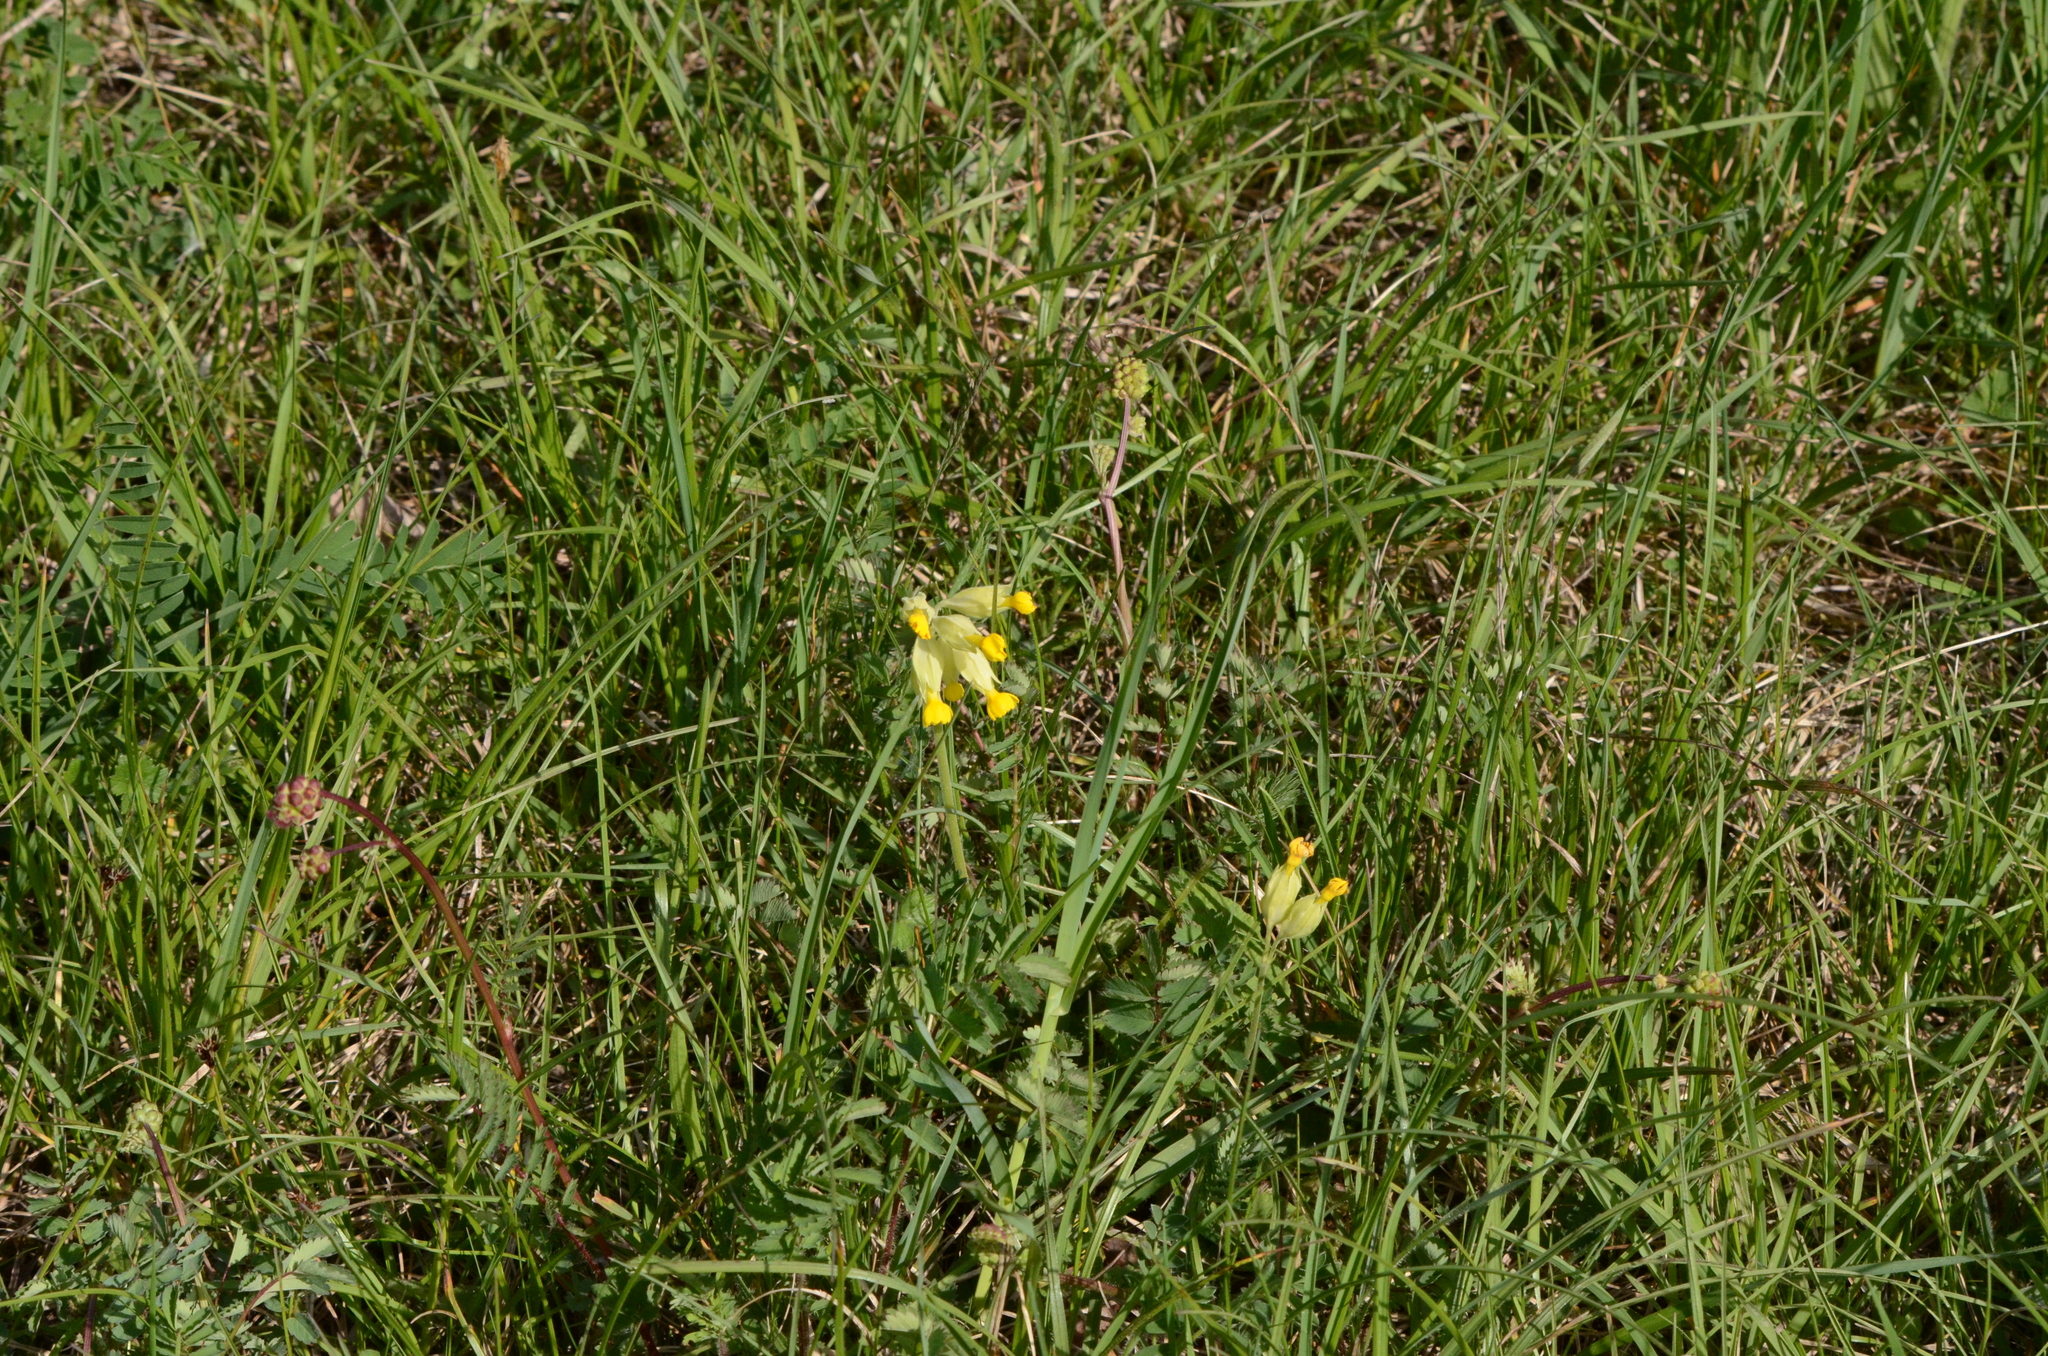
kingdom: Plantae
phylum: Tracheophyta
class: Magnoliopsida
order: Ericales
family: Primulaceae
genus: Primula
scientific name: Primula veris
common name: Cowslip
